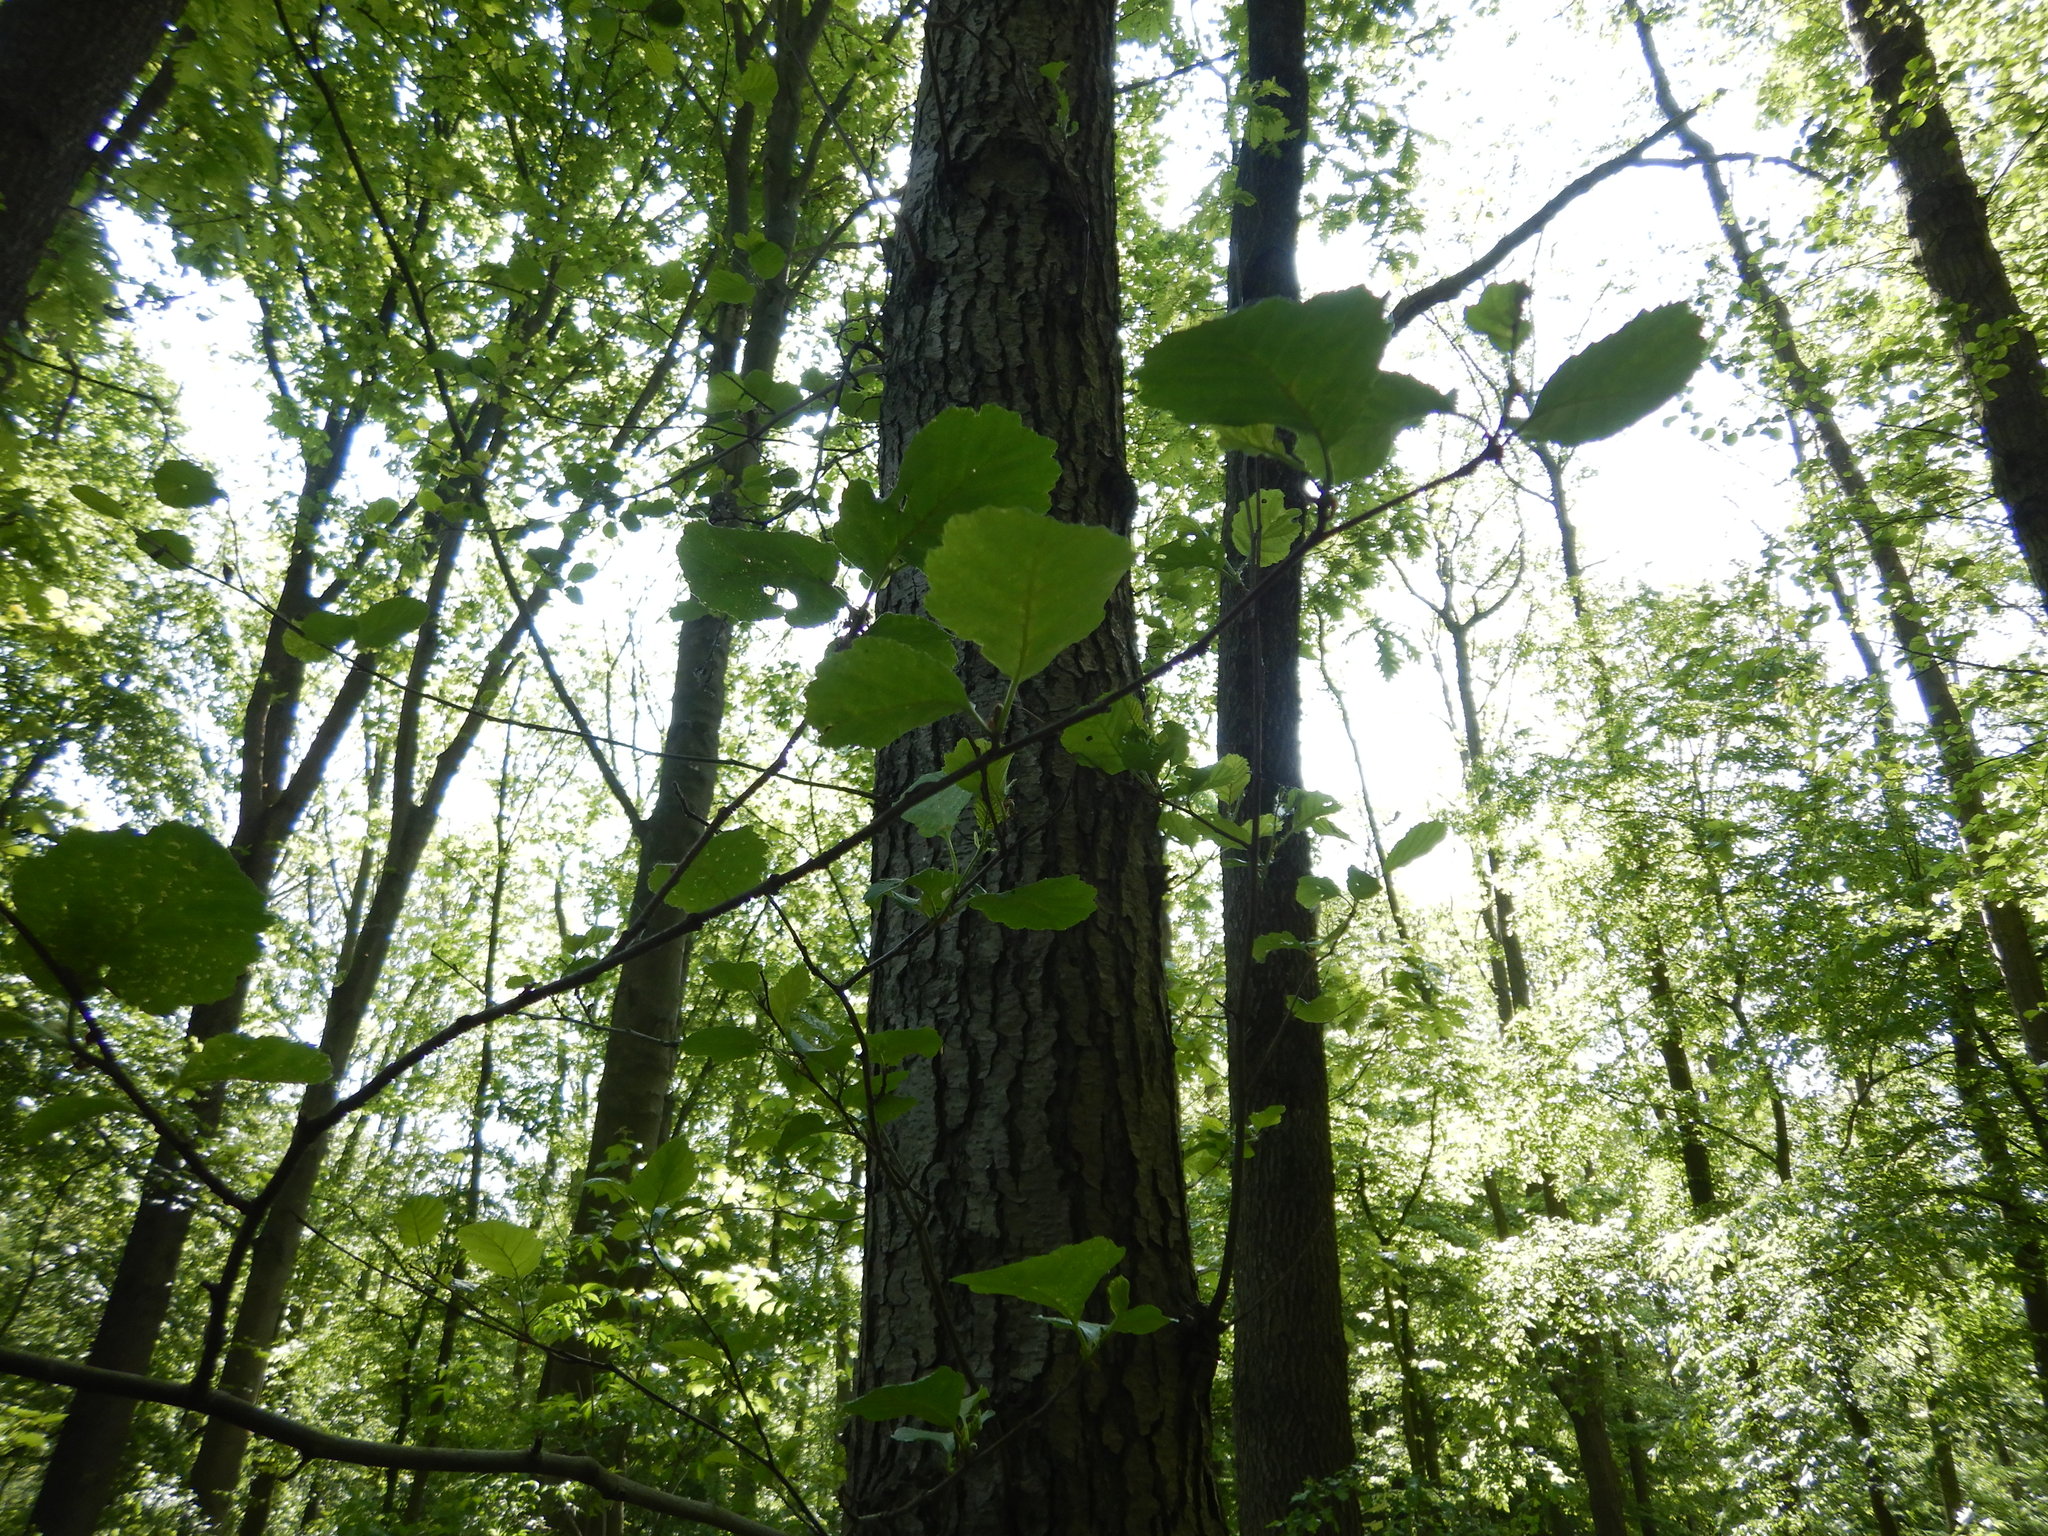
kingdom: Plantae
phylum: Tracheophyta
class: Magnoliopsida
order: Fagales
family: Betulaceae
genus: Alnus
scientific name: Alnus glutinosa
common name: Black alder
